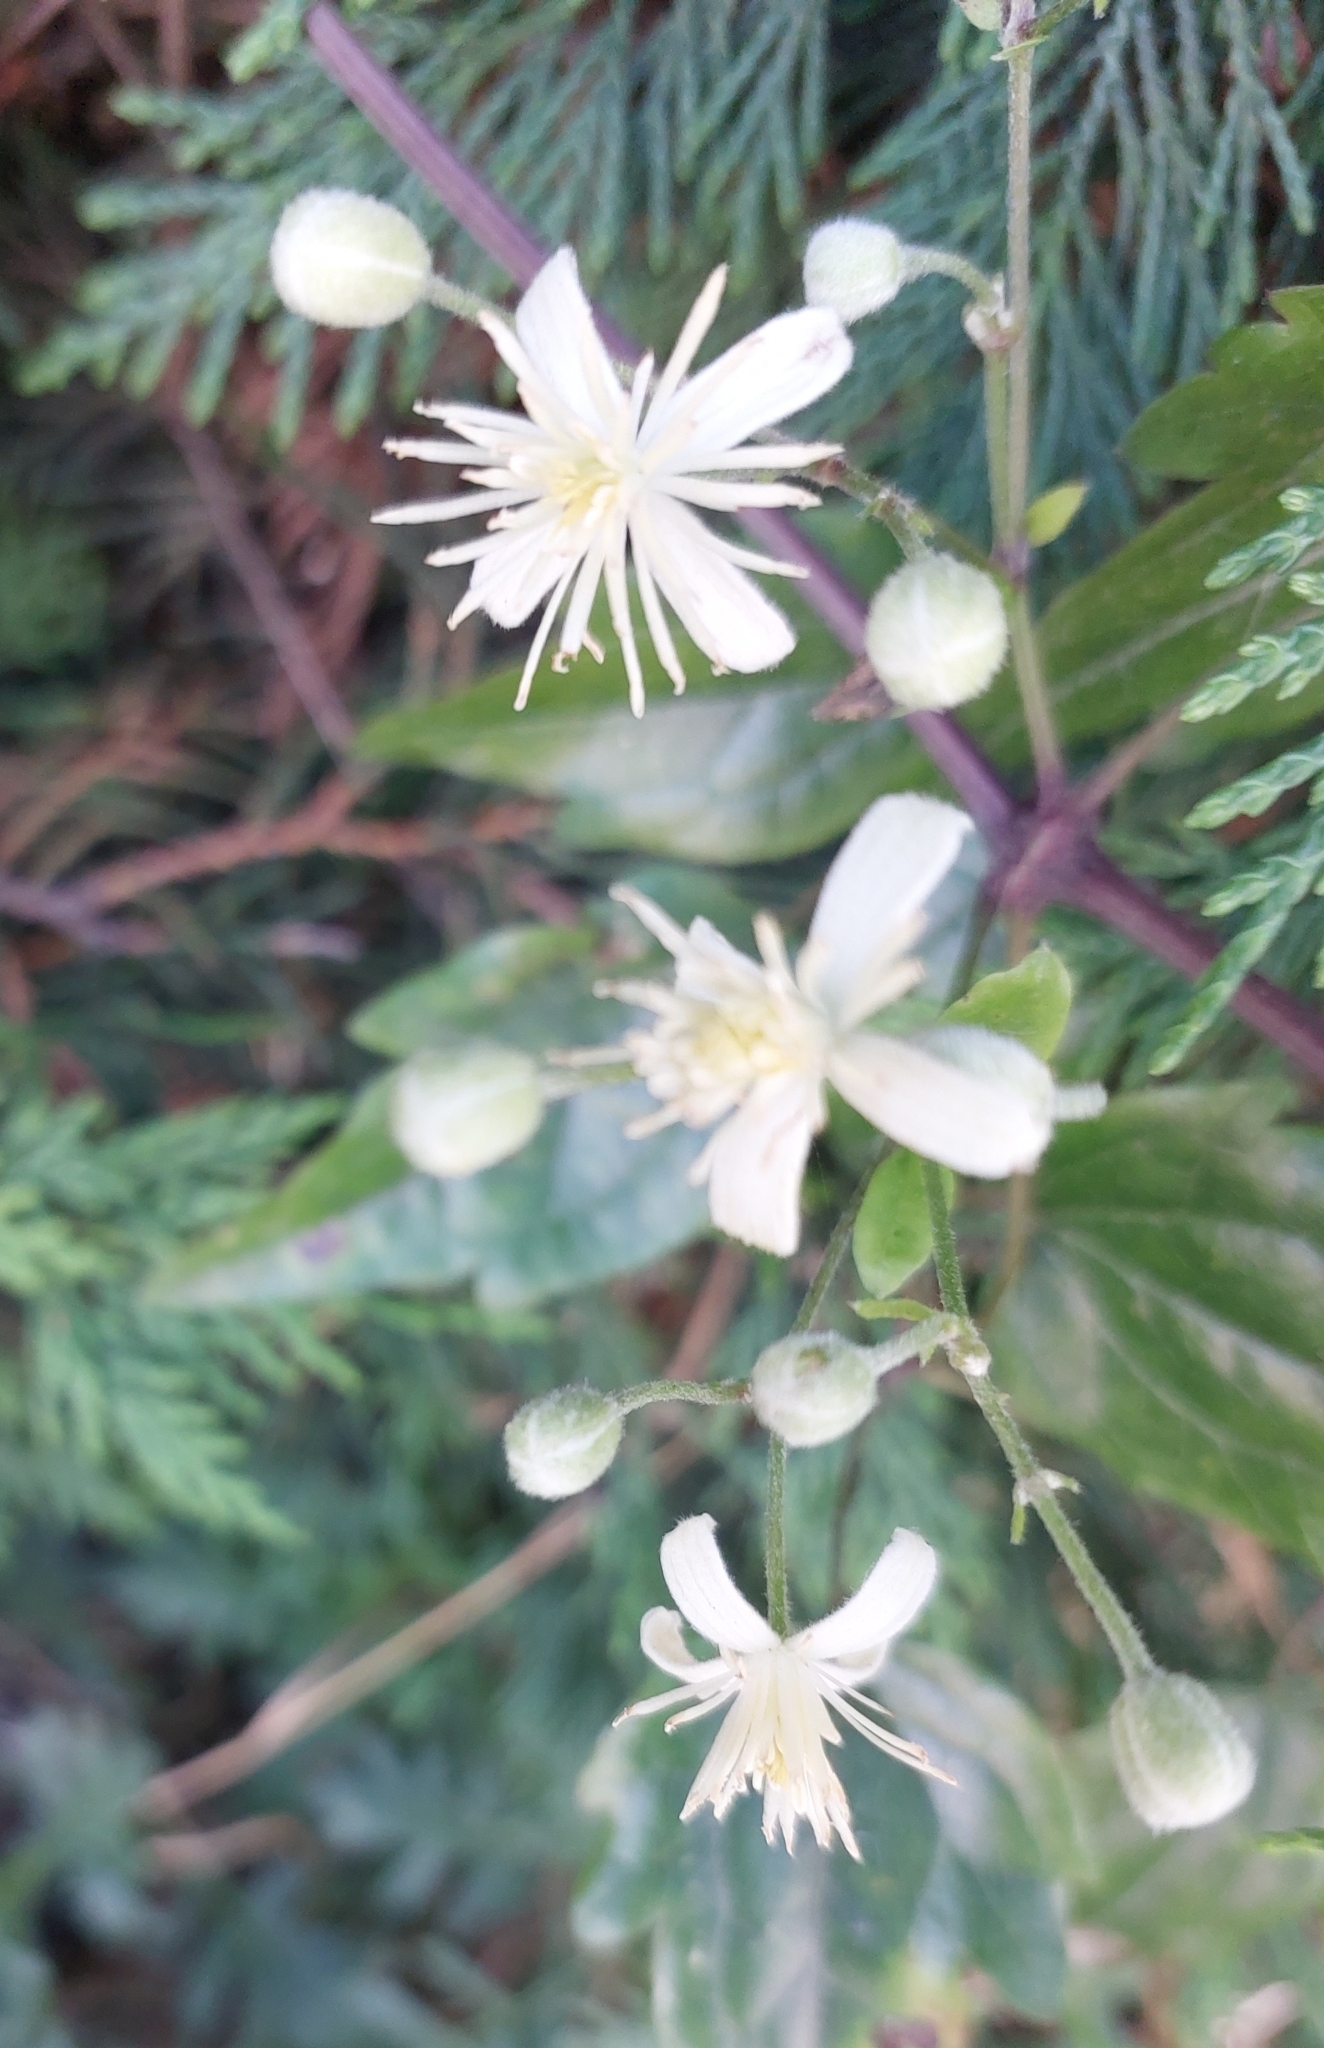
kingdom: Plantae
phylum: Tracheophyta
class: Magnoliopsida
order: Ranunculales
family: Ranunculaceae
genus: Clematis
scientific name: Clematis vitalba
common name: Evergreen clematis
